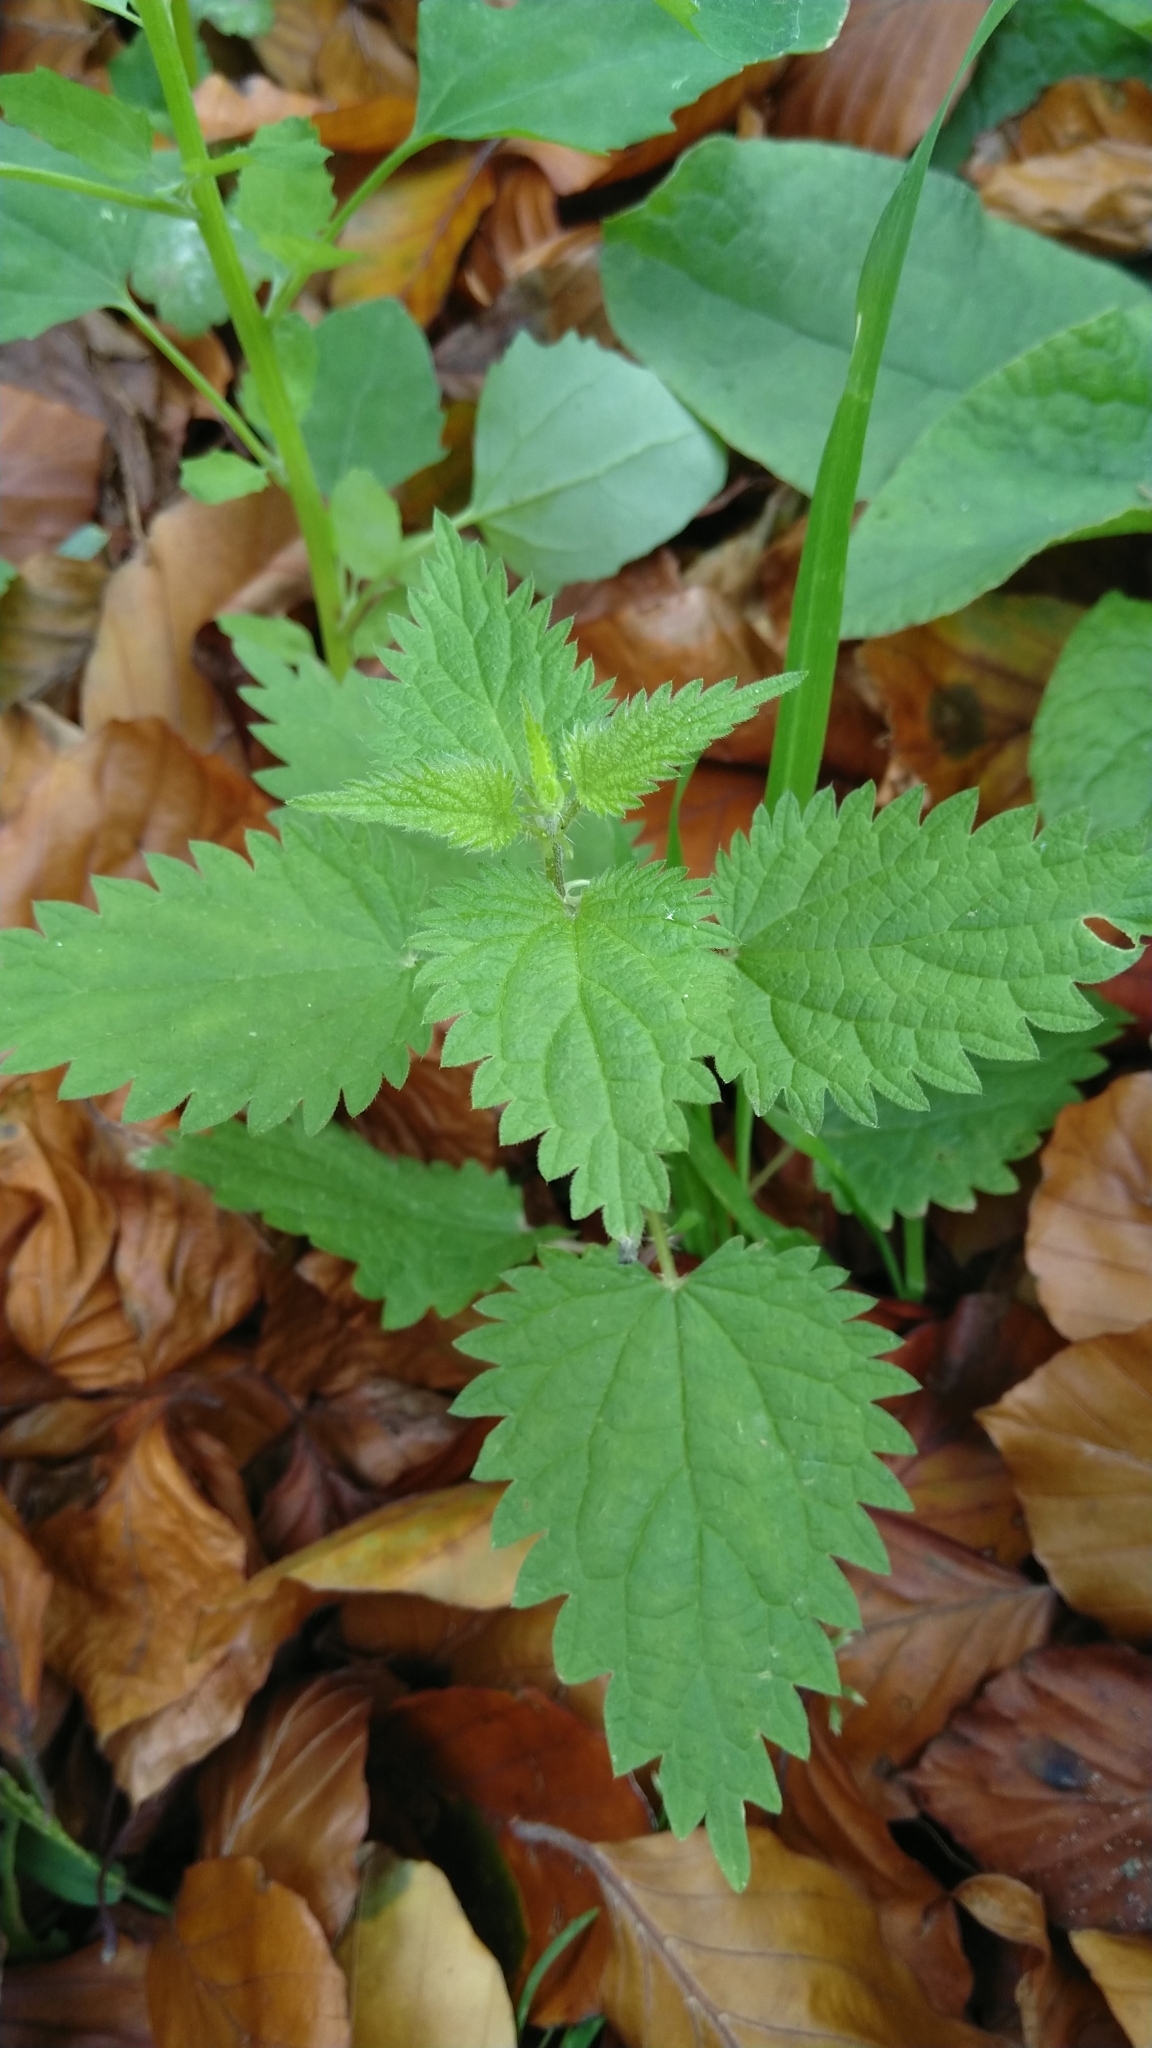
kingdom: Plantae
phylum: Tracheophyta
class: Magnoliopsida
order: Rosales
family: Urticaceae
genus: Urtica
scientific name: Urtica dioica
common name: Common nettle
